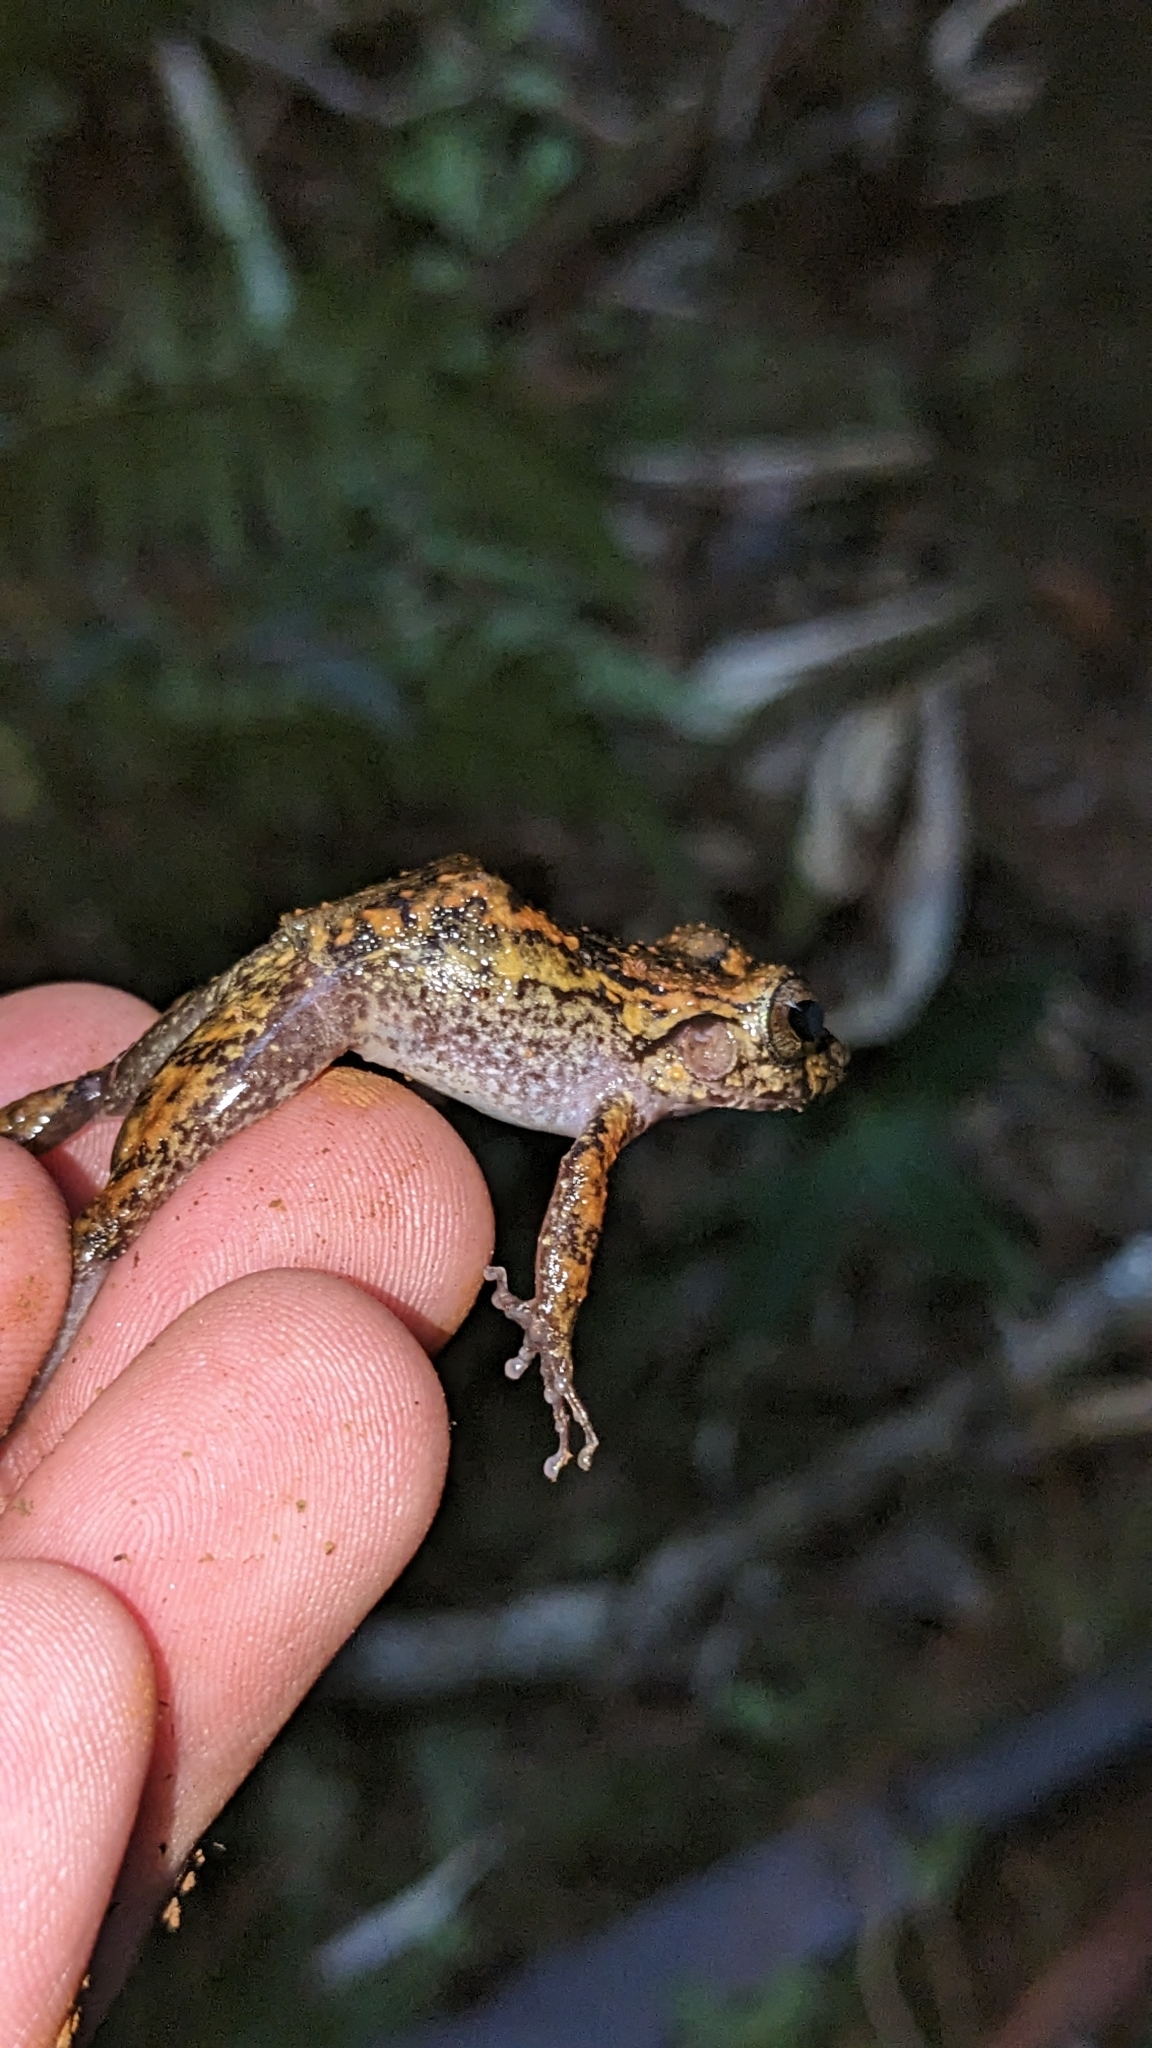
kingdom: Animalia
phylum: Chordata
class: Amphibia
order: Anura
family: Eleutherodactylidae
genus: Eleutherodactylus
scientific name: Eleutherodactylus gundlachi
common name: Turquino spiny frog
